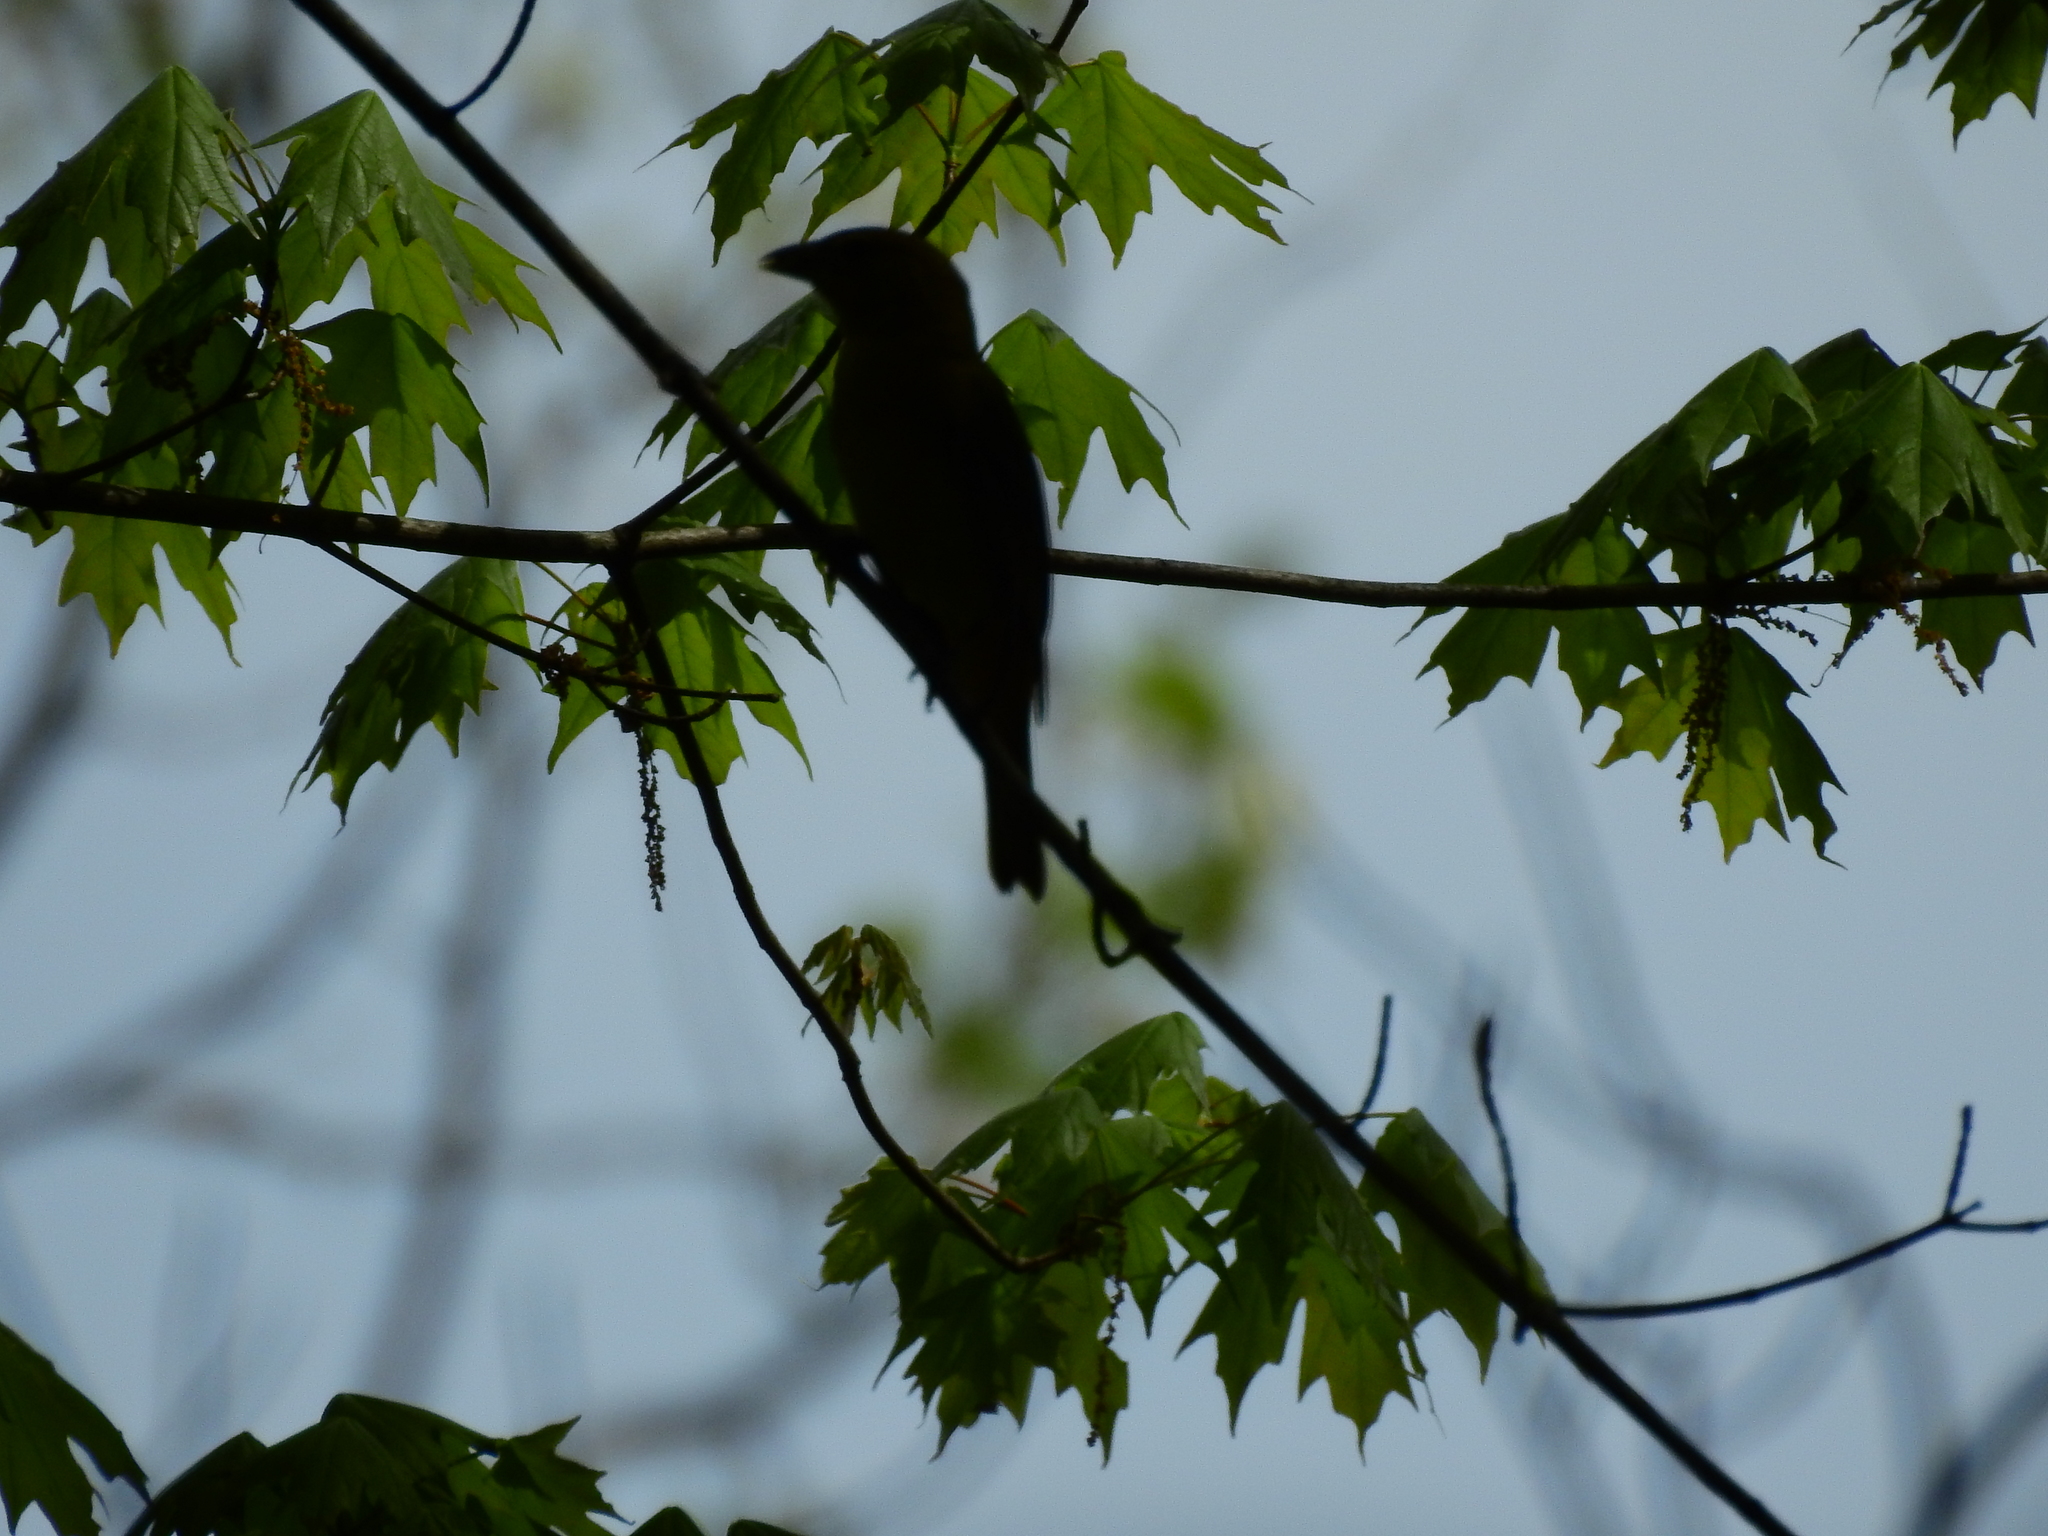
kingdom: Animalia
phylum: Chordata
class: Aves
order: Passeriformes
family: Cardinalidae
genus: Piranga
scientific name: Piranga rubra
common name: Summer tanager
